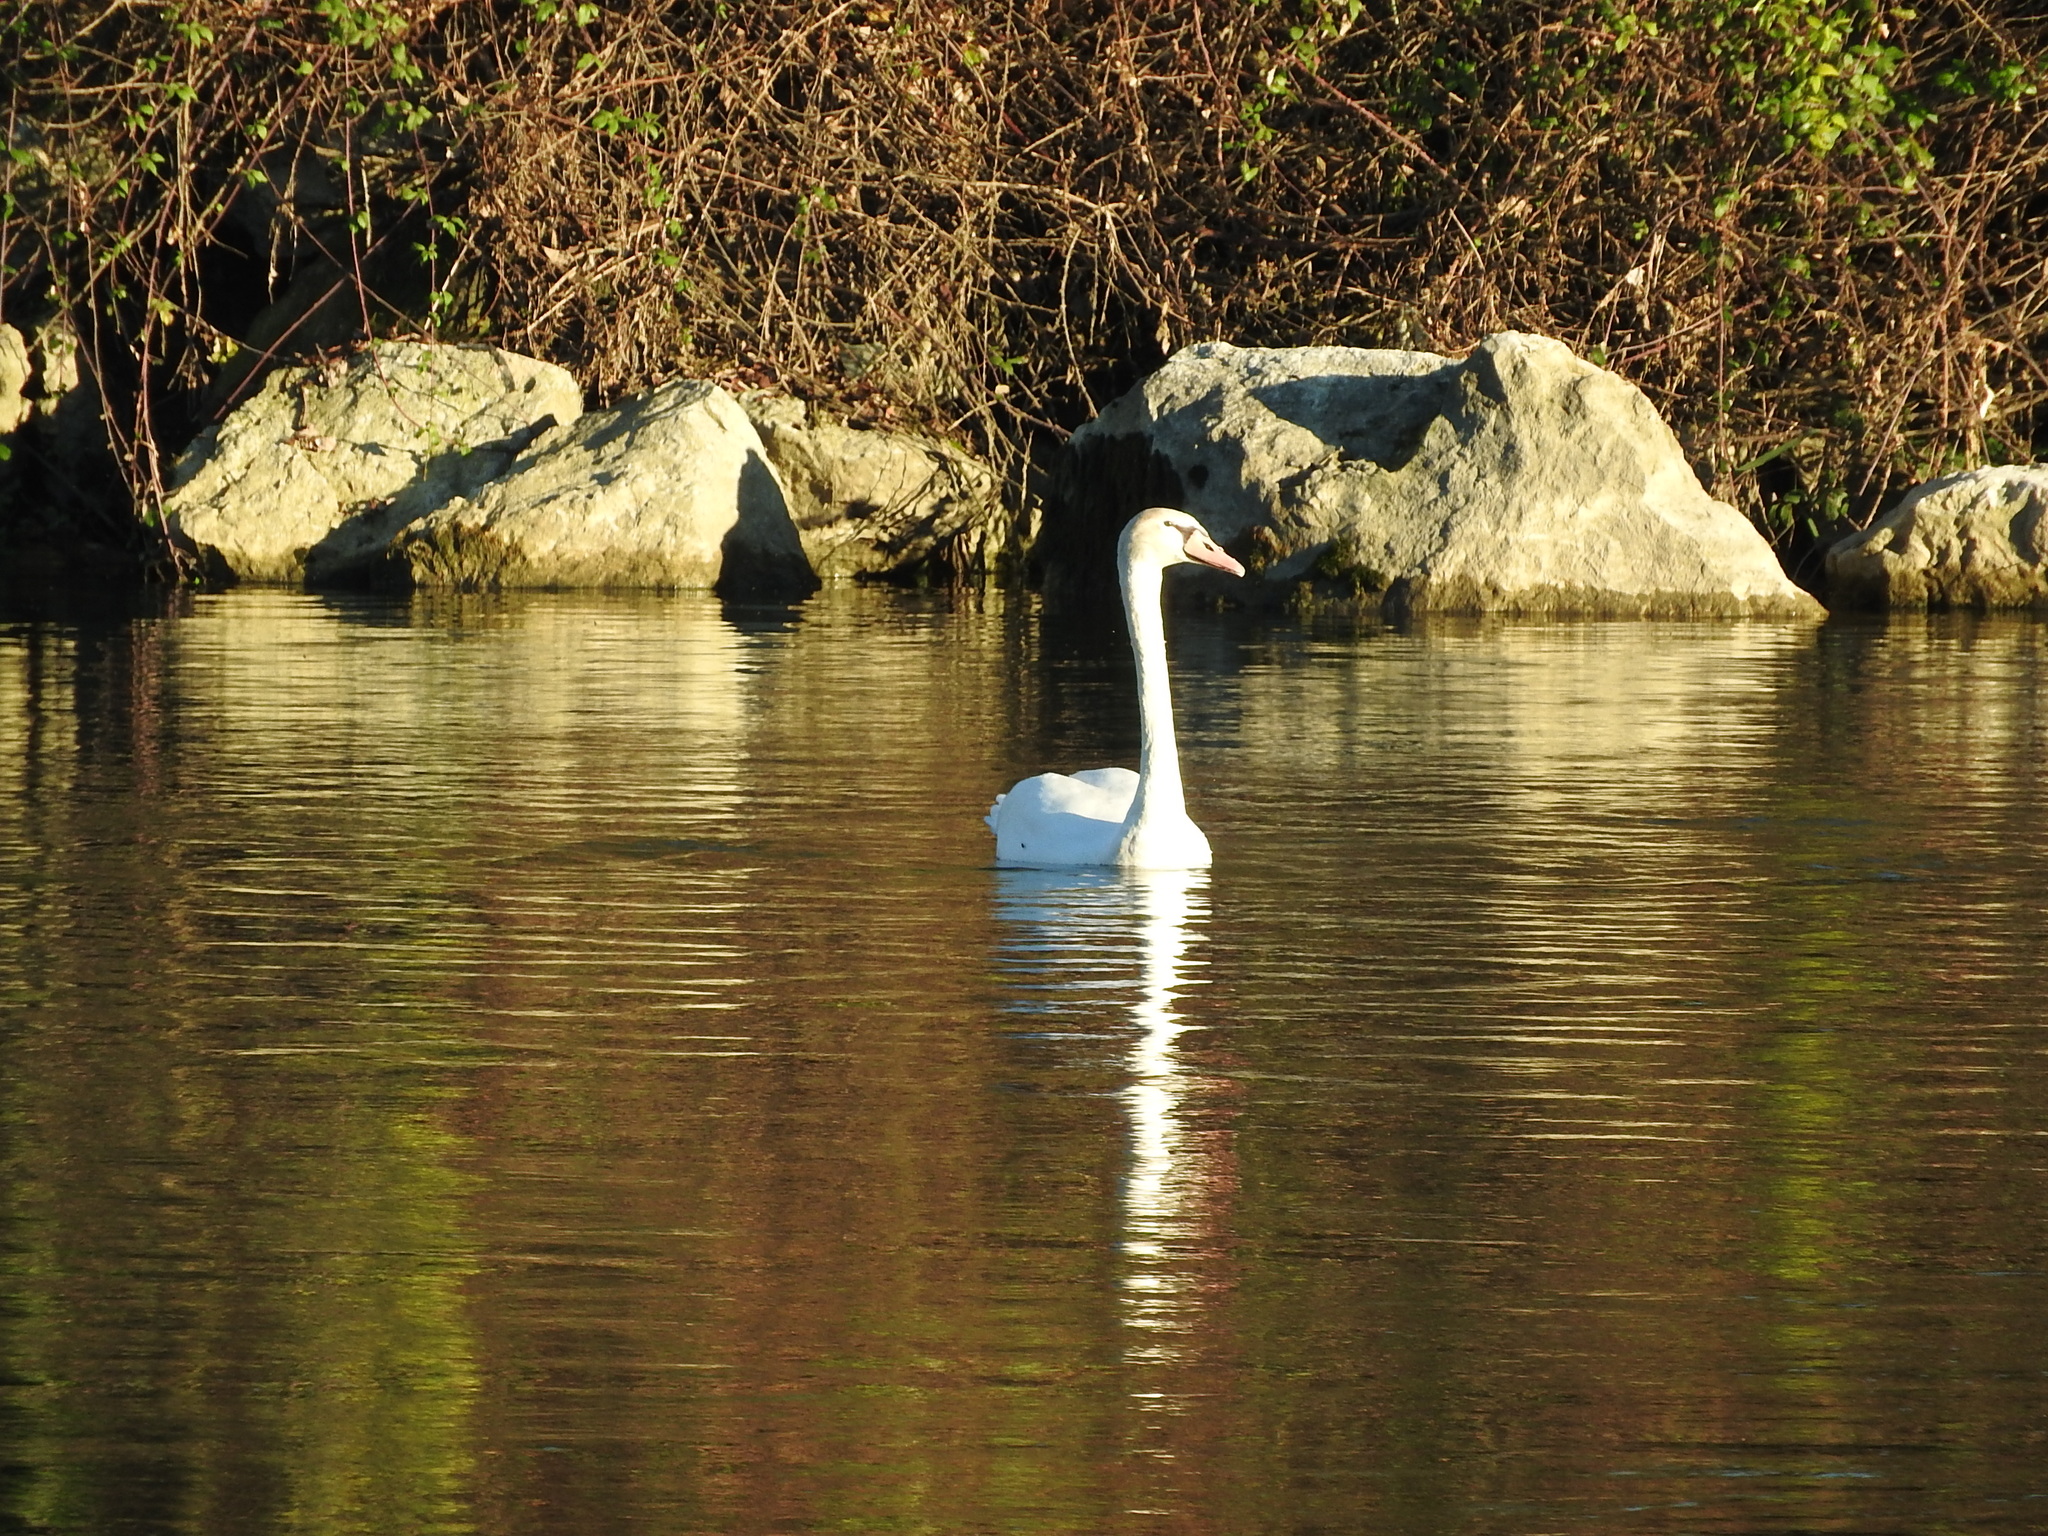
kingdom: Animalia
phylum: Chordata
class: Aves
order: Anseriformes
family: Anatidae
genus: Cygnus
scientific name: Cygnus olor
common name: Mute swan
